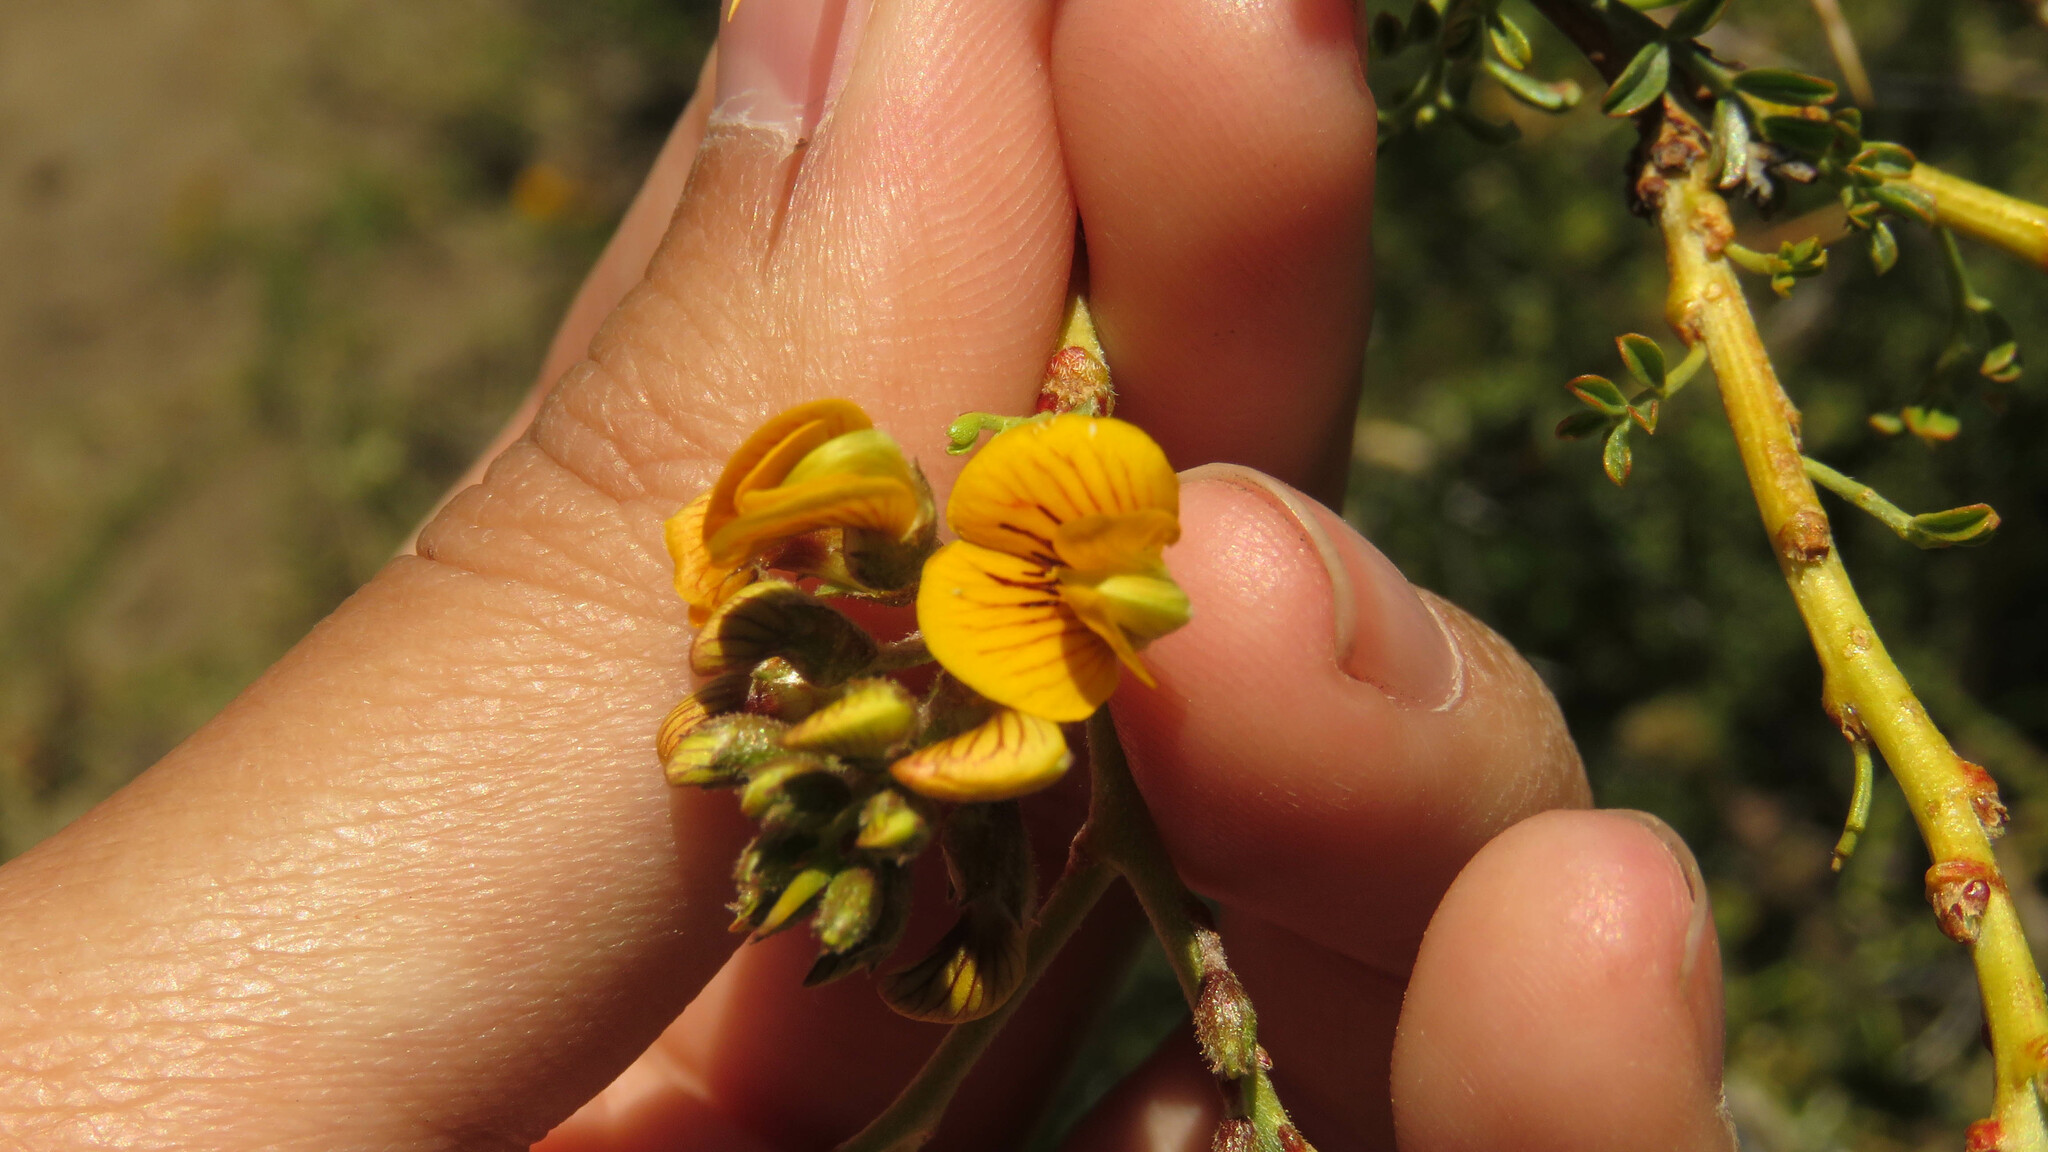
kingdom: Plantae
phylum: Tracheophyta
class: Magnoliopsida
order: Fabales
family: Fabaceae
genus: Adesmia
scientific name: Adesmia volckmannii
